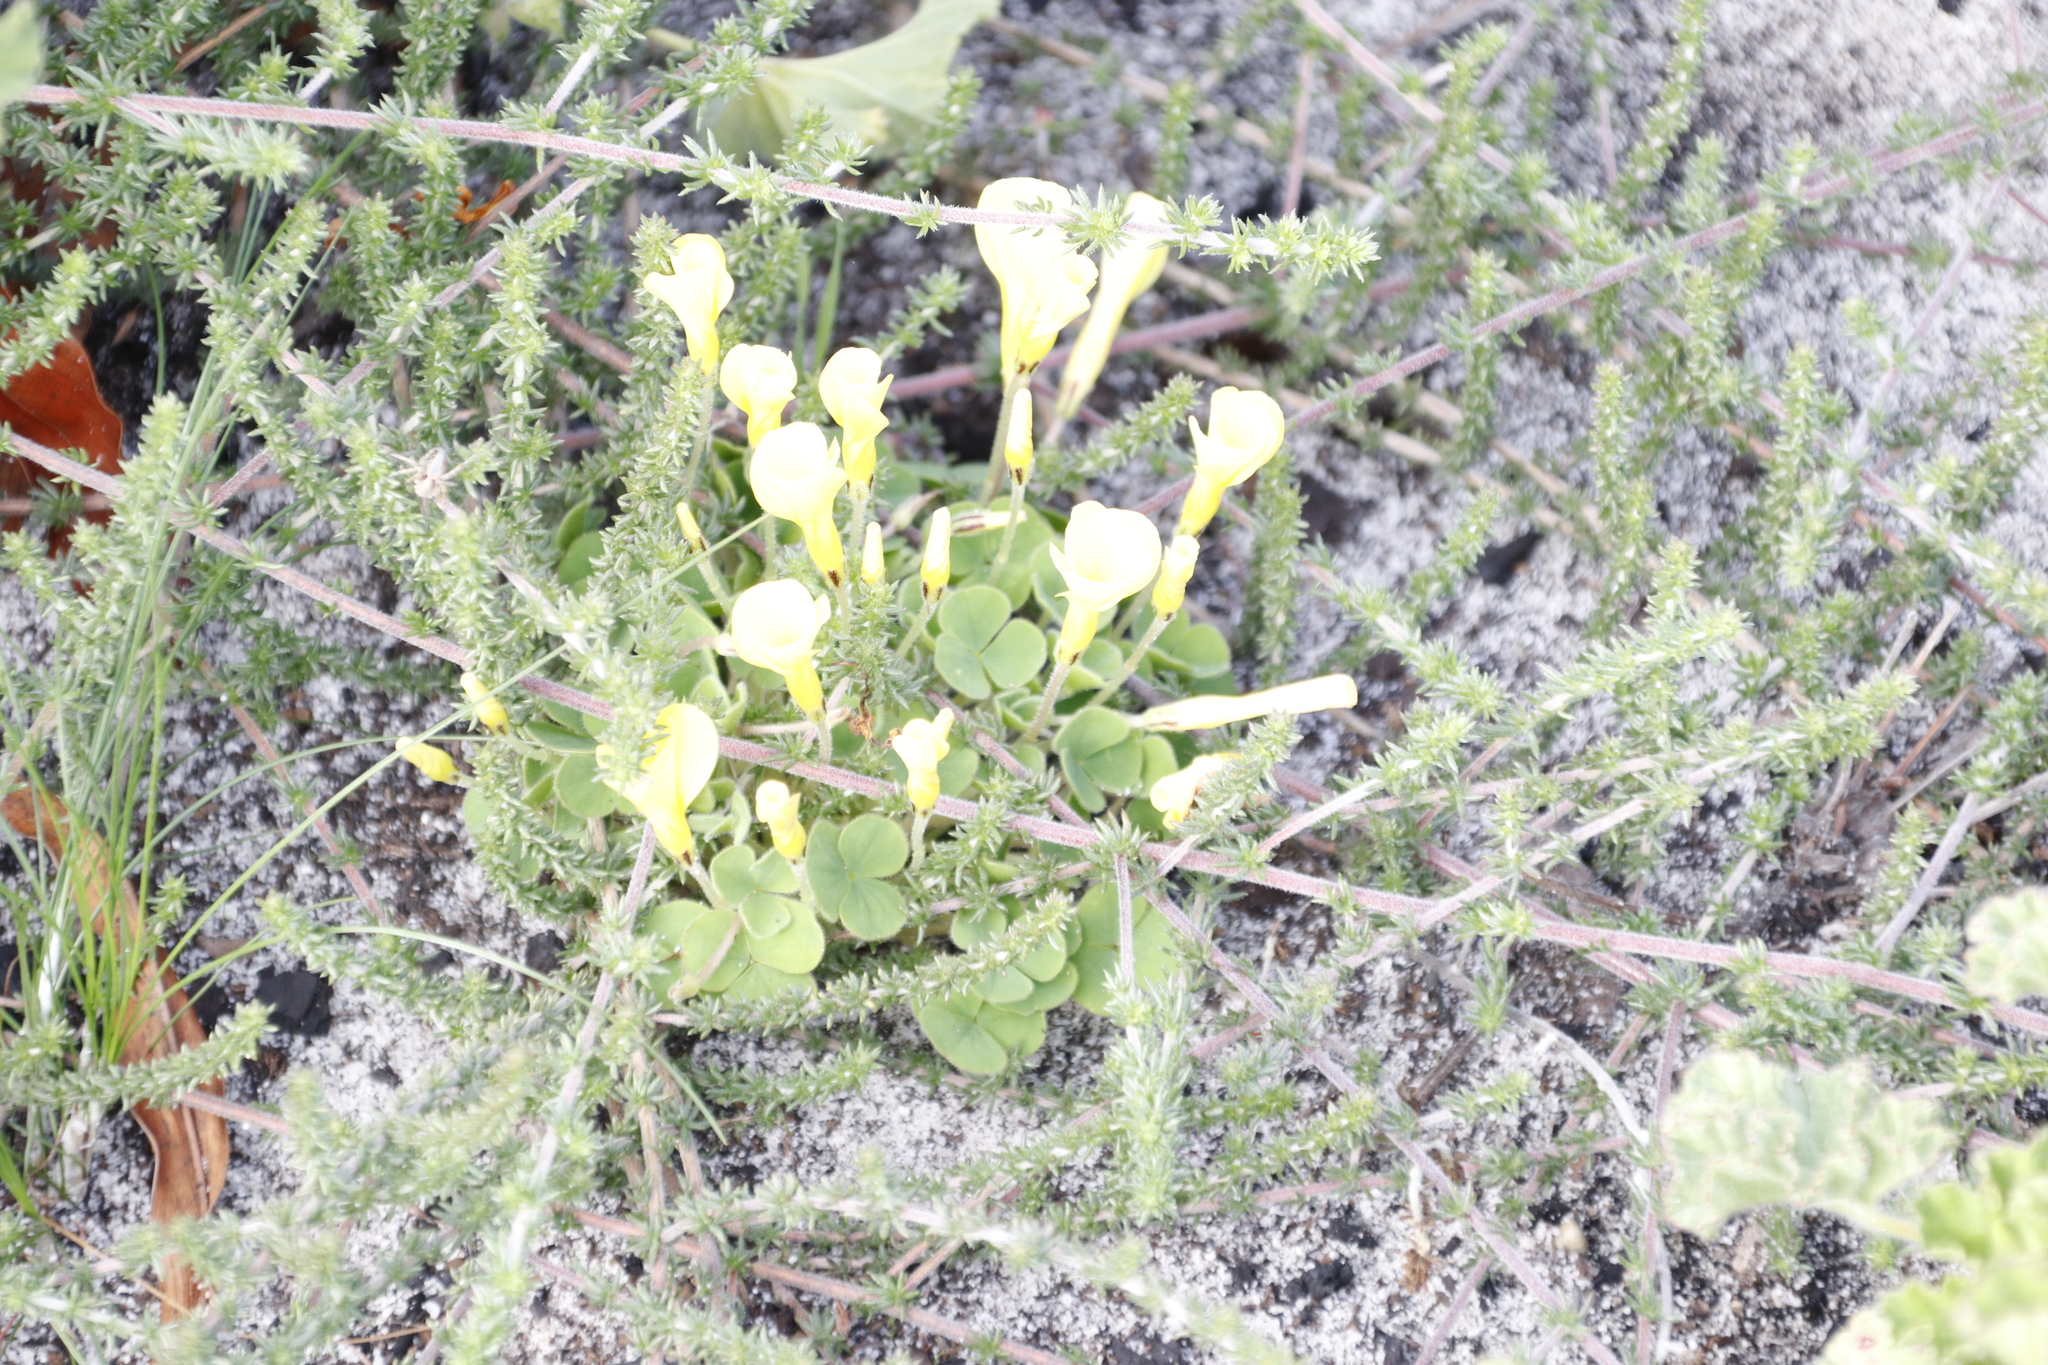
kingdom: Plantae
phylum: Tracheophyta
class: Magnoliopsida
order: Oxalidales
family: Oxalidaceae
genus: Oxalis
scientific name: Oxalis luteola
